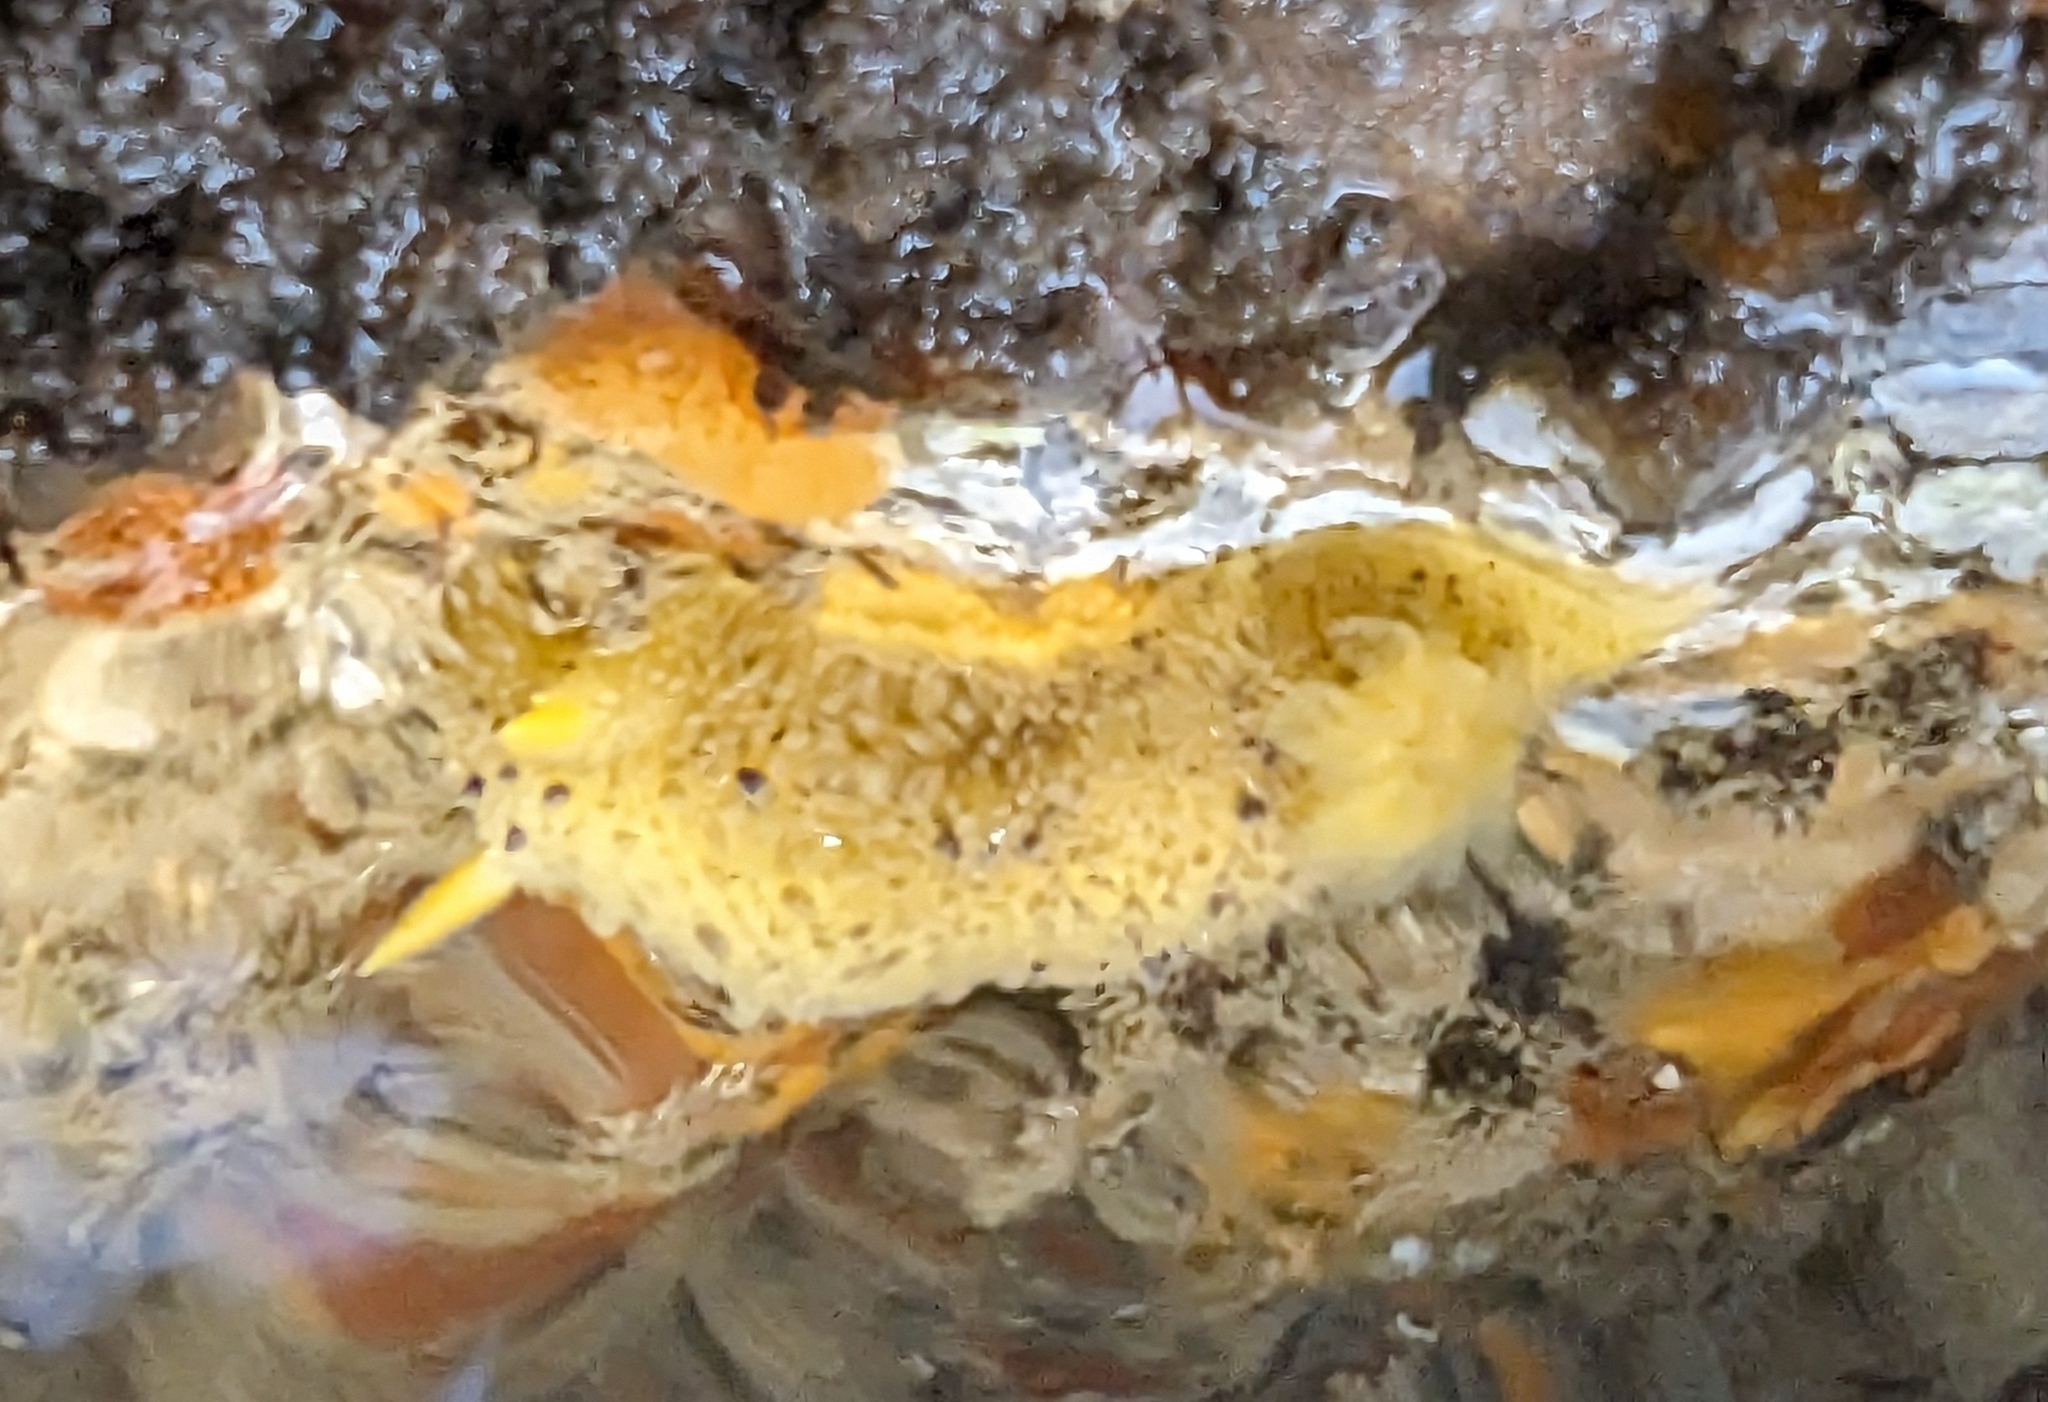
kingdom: Animalia
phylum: Mollusca
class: Gastropoda
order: Nudibranchia
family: Dorididae
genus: Doris
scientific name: Doris montereyensis
